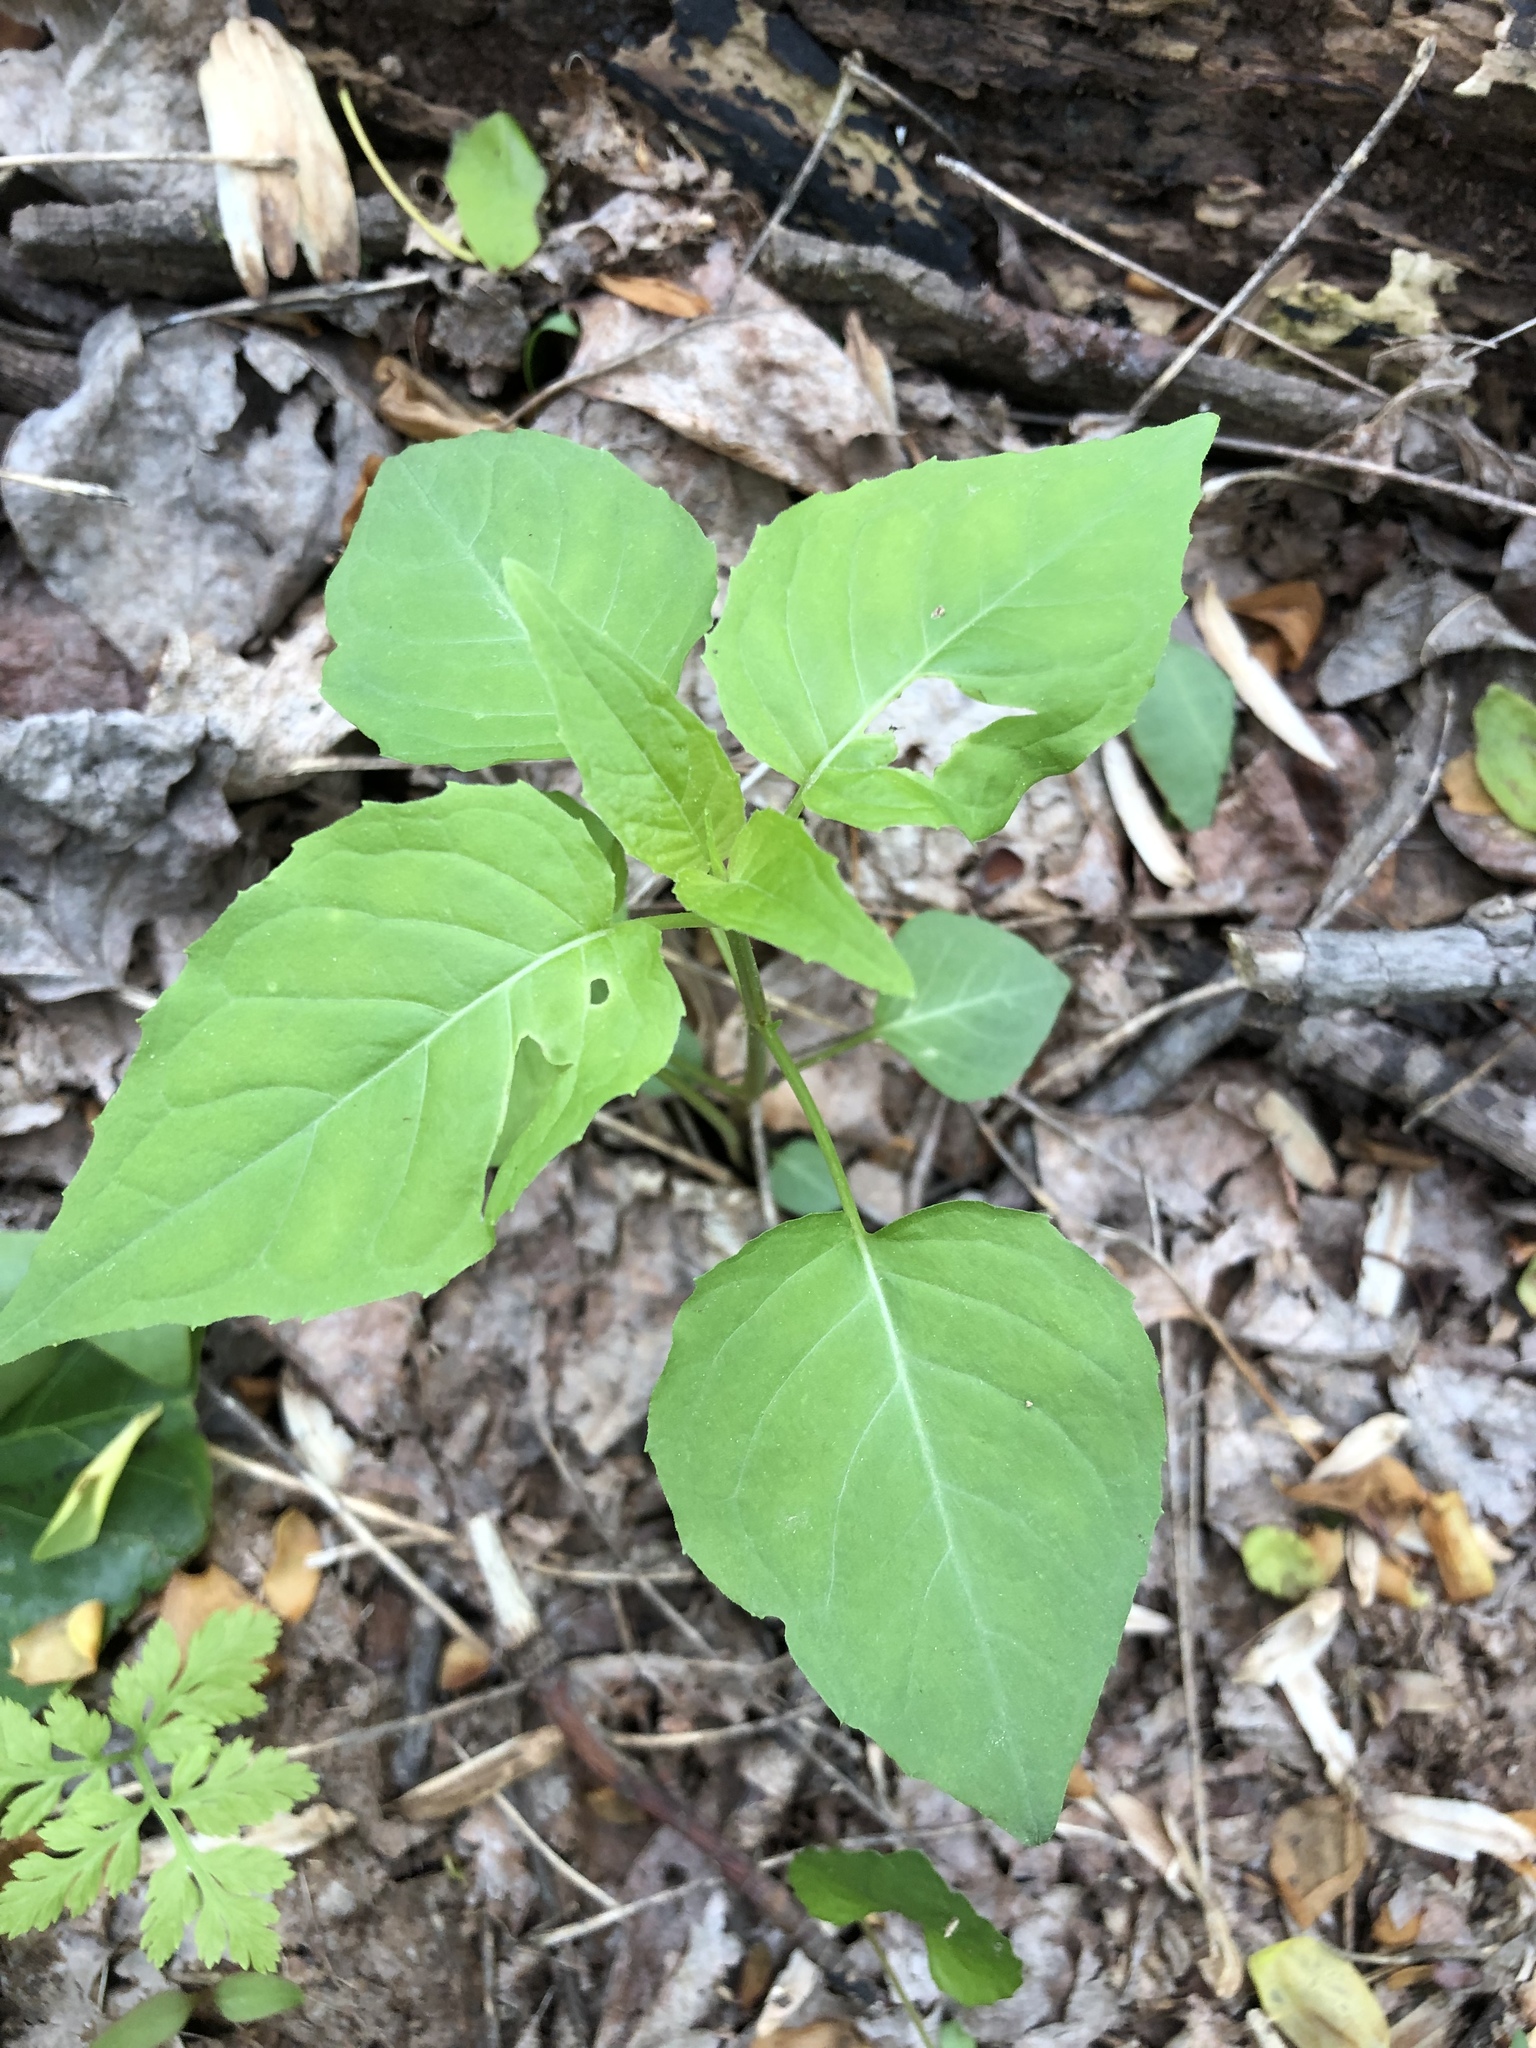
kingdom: Plantae
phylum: Tracheophyta
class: Magnoliopsida
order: Myrtales
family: Onagraceae
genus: Circaea
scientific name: Circaea canadensis
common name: Broad-leaved enchanter's nightshade
